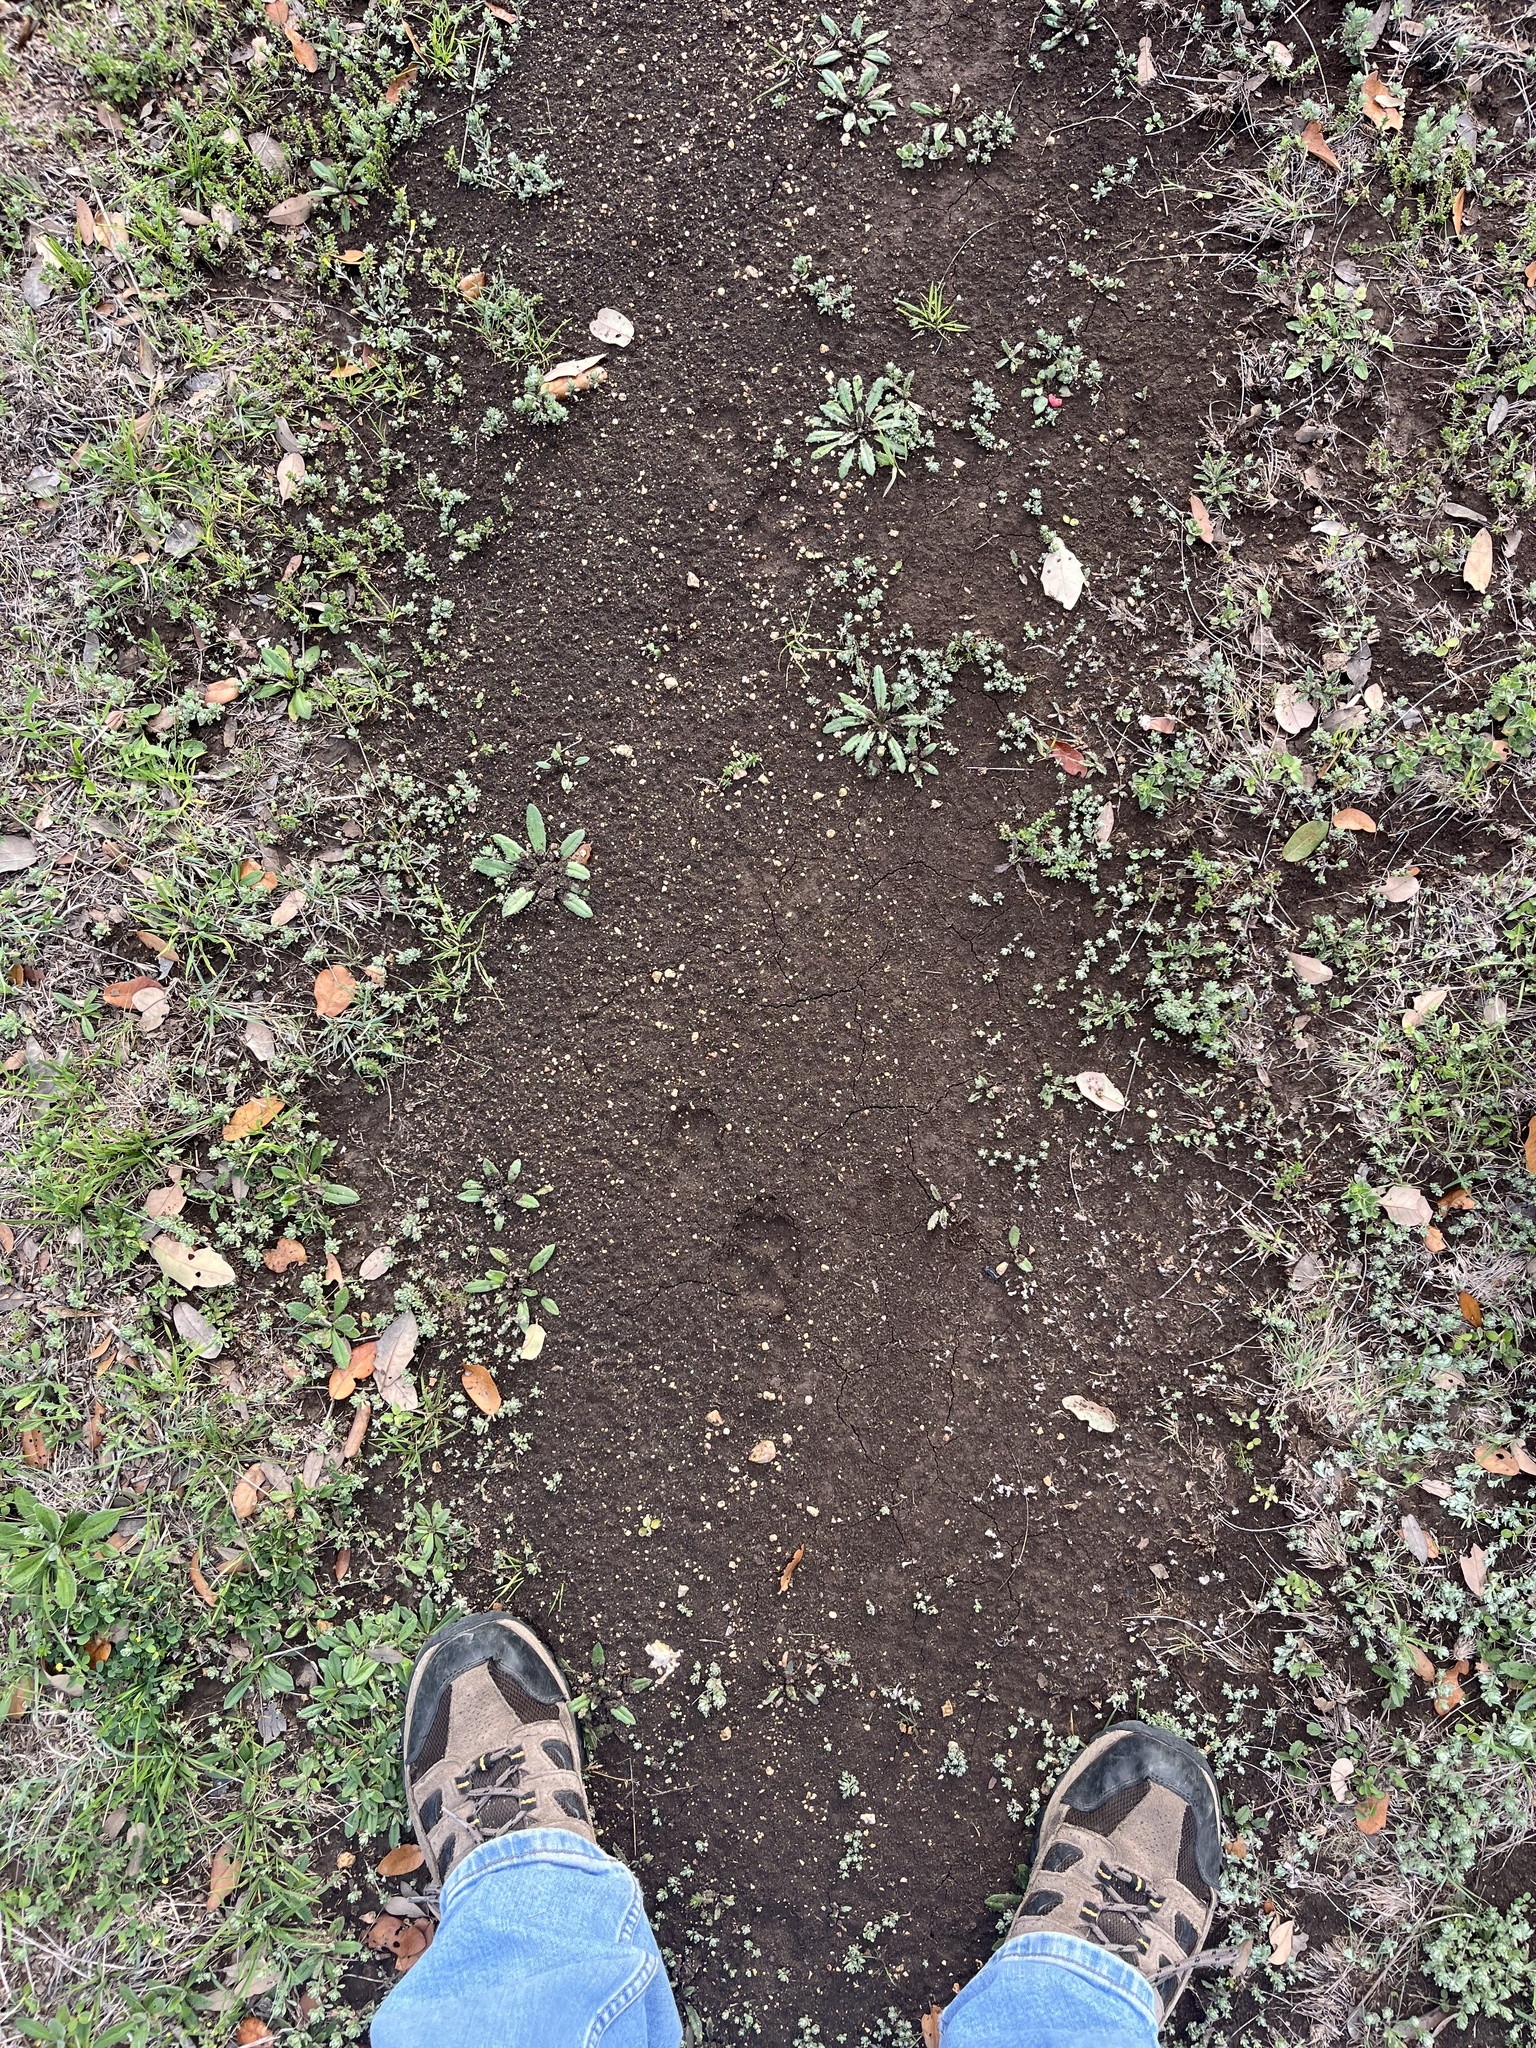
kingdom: Animalia
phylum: Chordata
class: Mammalia
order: Carnivora
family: Canidae
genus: Canis
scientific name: Canis latrans
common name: Coyote
